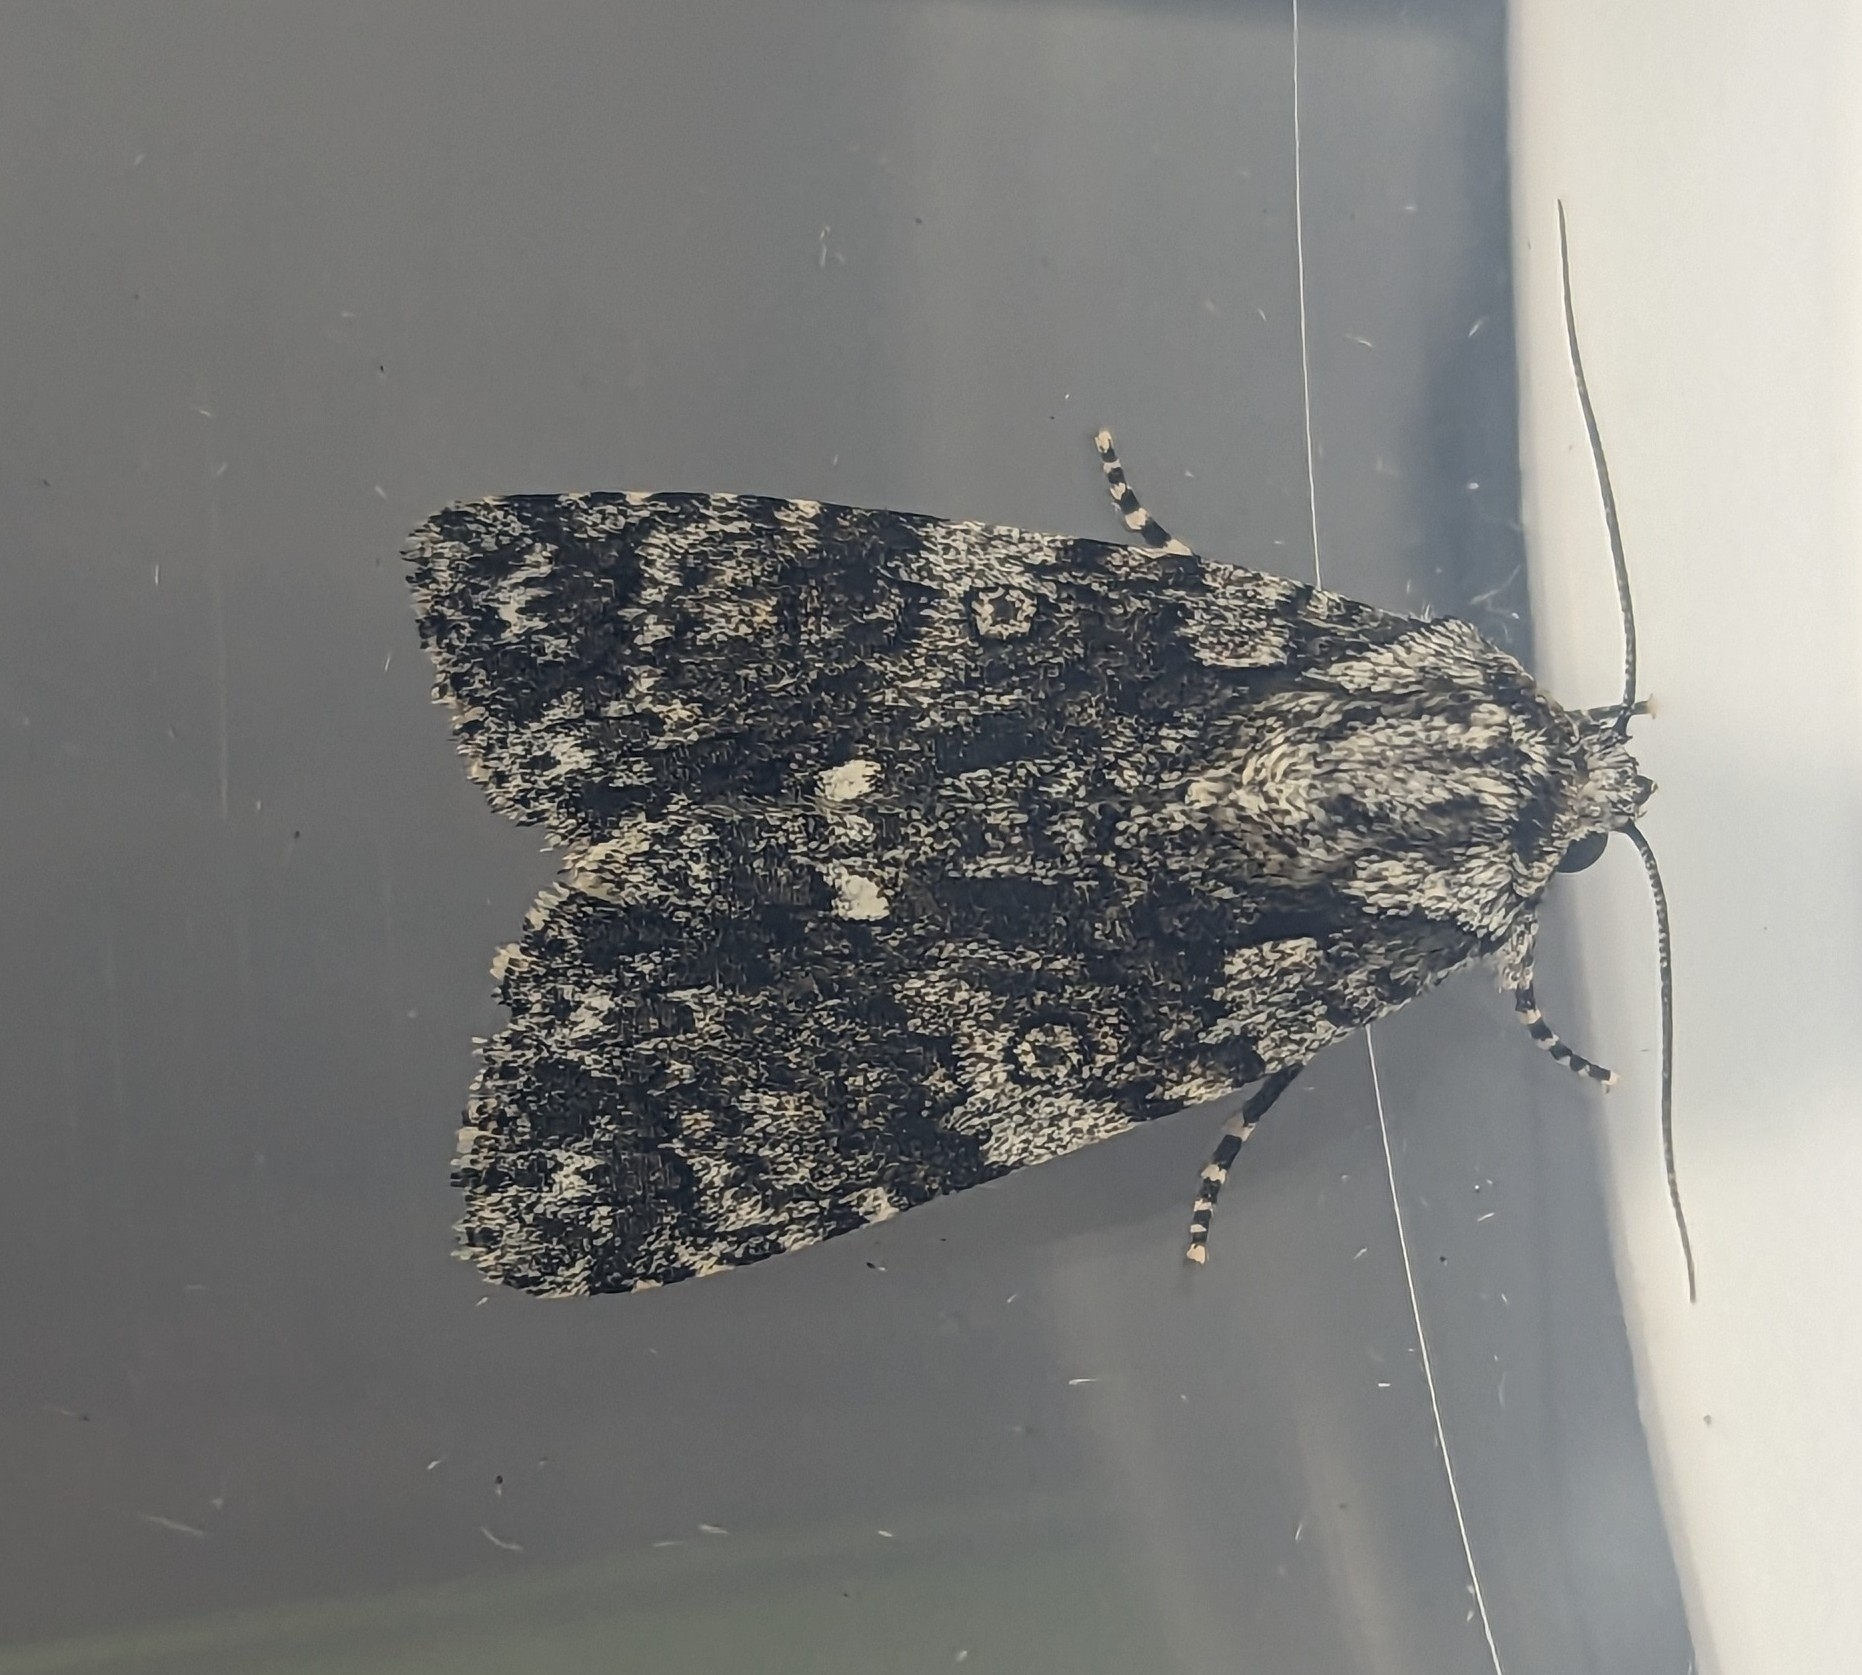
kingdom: Animalia
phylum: Arthropoda
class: Insecta
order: Lepidoptera
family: Noctuidae
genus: Acronicta
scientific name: Acronicta rumicis
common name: Knot grass
